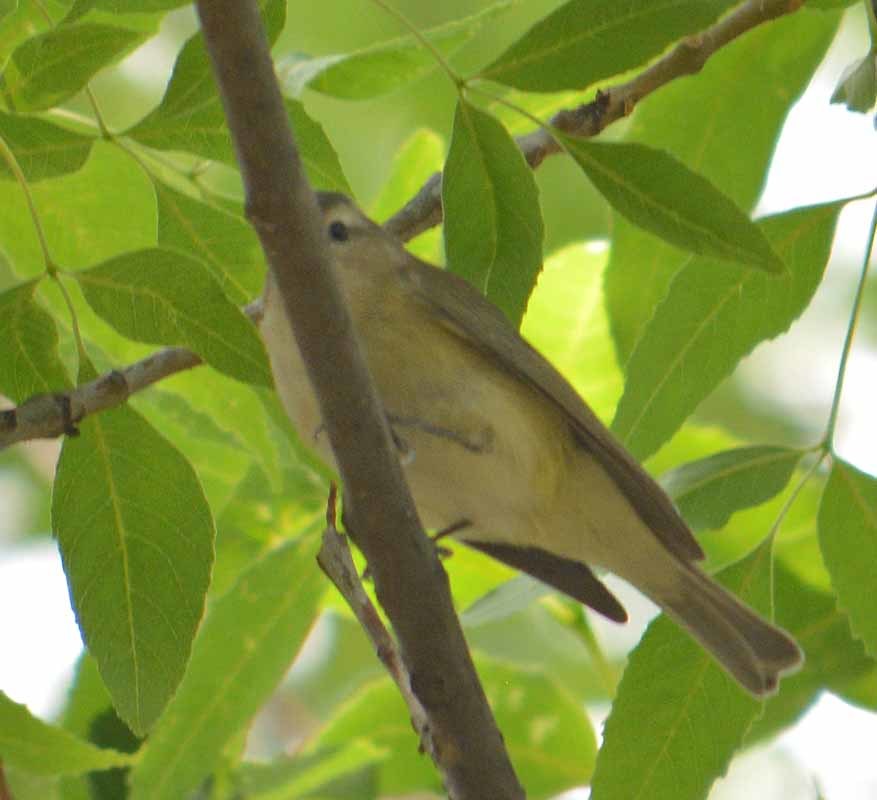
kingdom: Animalia
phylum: Chordata
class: Aves
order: Passeriformes
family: Vireonidae
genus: Vireo
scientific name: Vireo gilvus
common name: Warbling vireo
